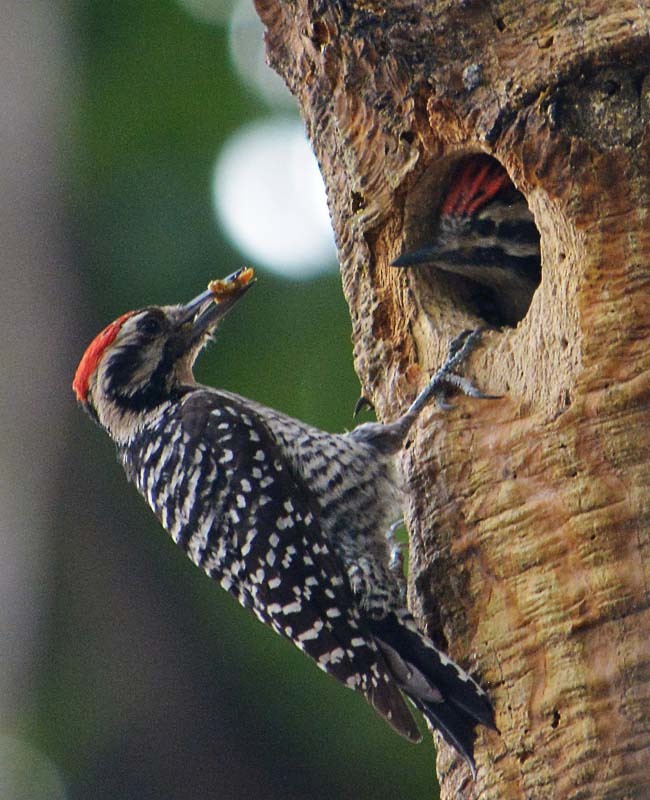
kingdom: Animalia
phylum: Chordata
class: Aves
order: Piciformes
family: Picidae
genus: Dryobates
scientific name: Dryobates scalaris
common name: Ladder-backed woodpecker
